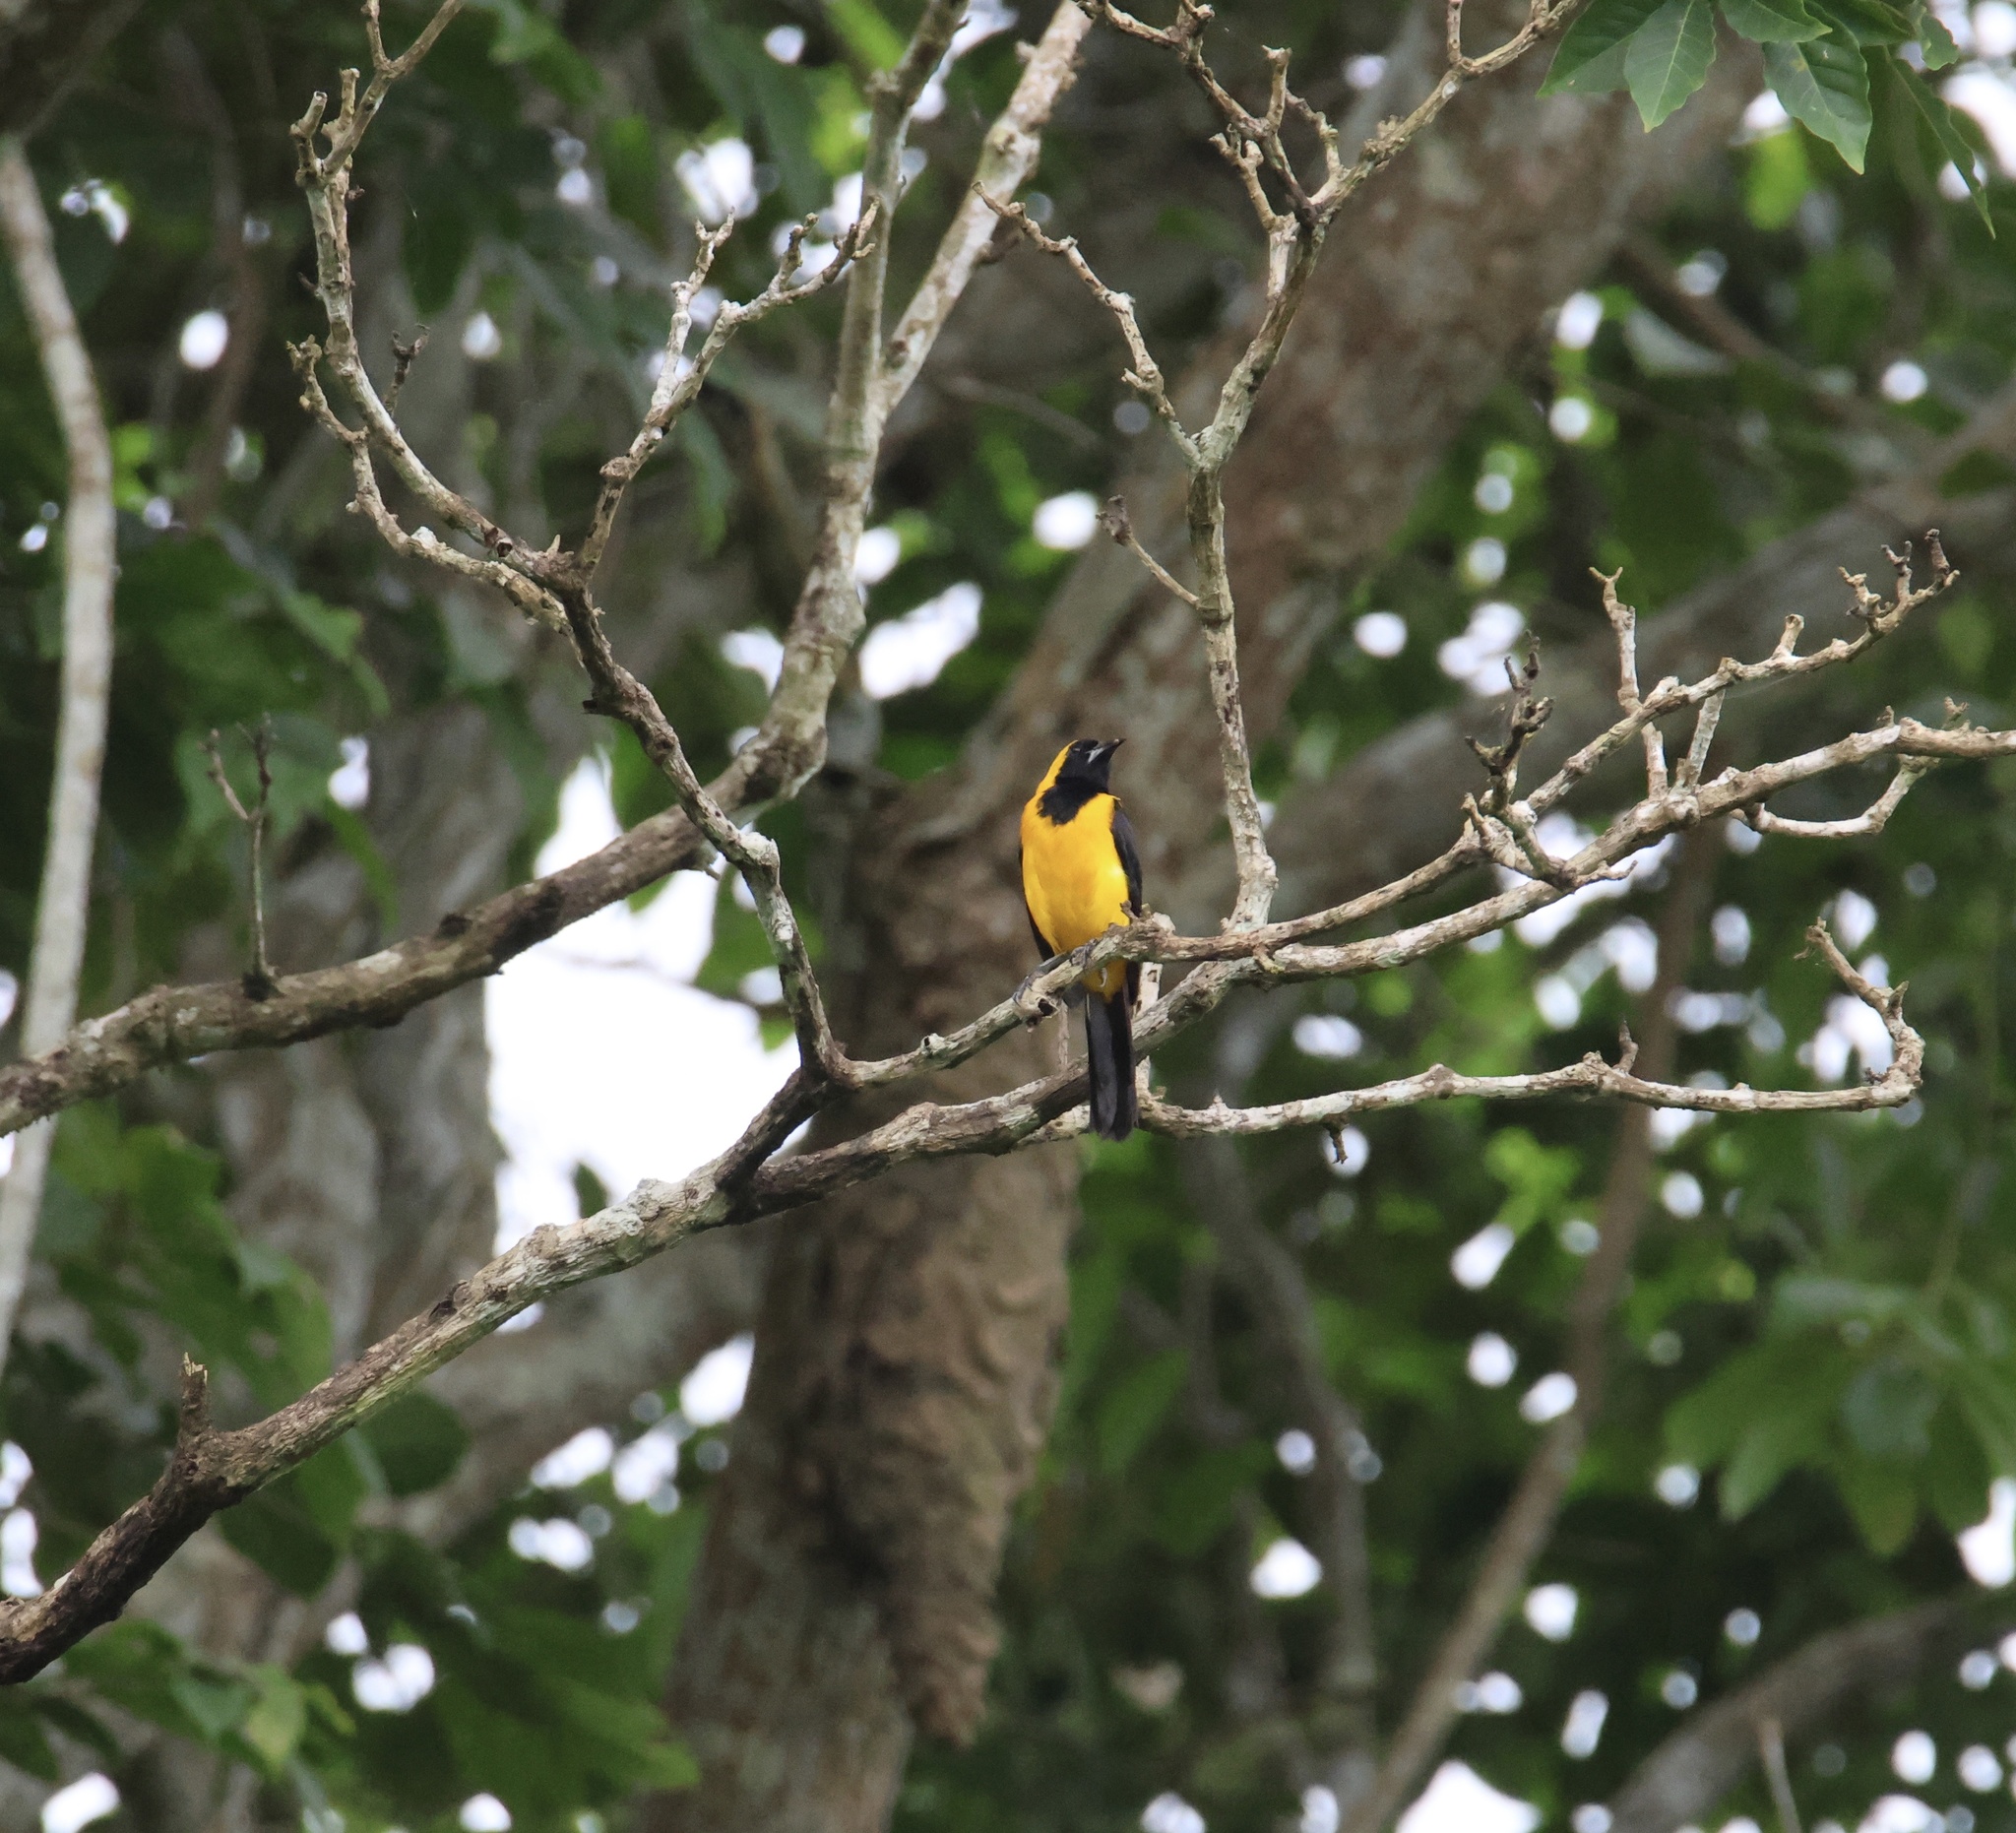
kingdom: Animalia
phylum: Chordata
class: Aves
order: Passeriformes
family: Icteridae
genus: Icterus
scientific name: Icterus chrysater
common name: Yellow-backed oriole
